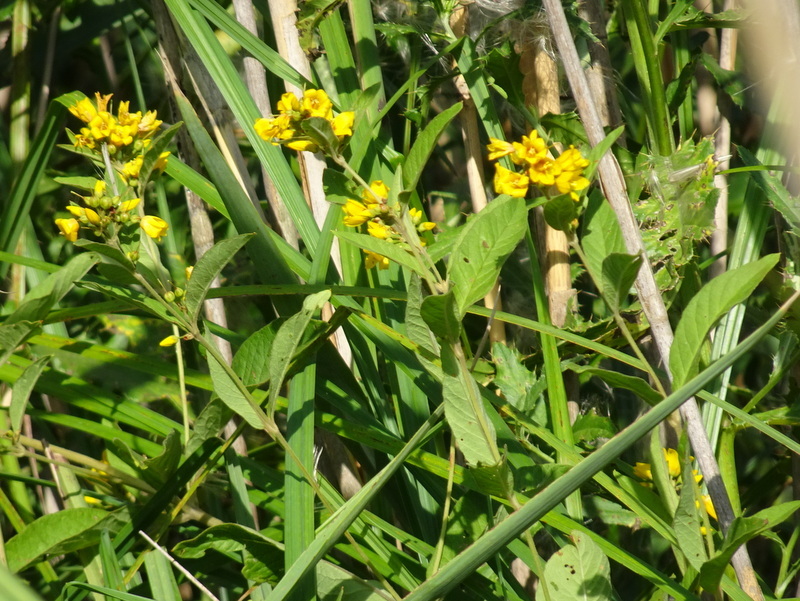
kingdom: Plantae
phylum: Tracheophyta
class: Magnoliopsida
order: Ericales
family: Primulaceae
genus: Lysimachia
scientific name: Lysimachia vulgaris
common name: Yellow loosestrife
